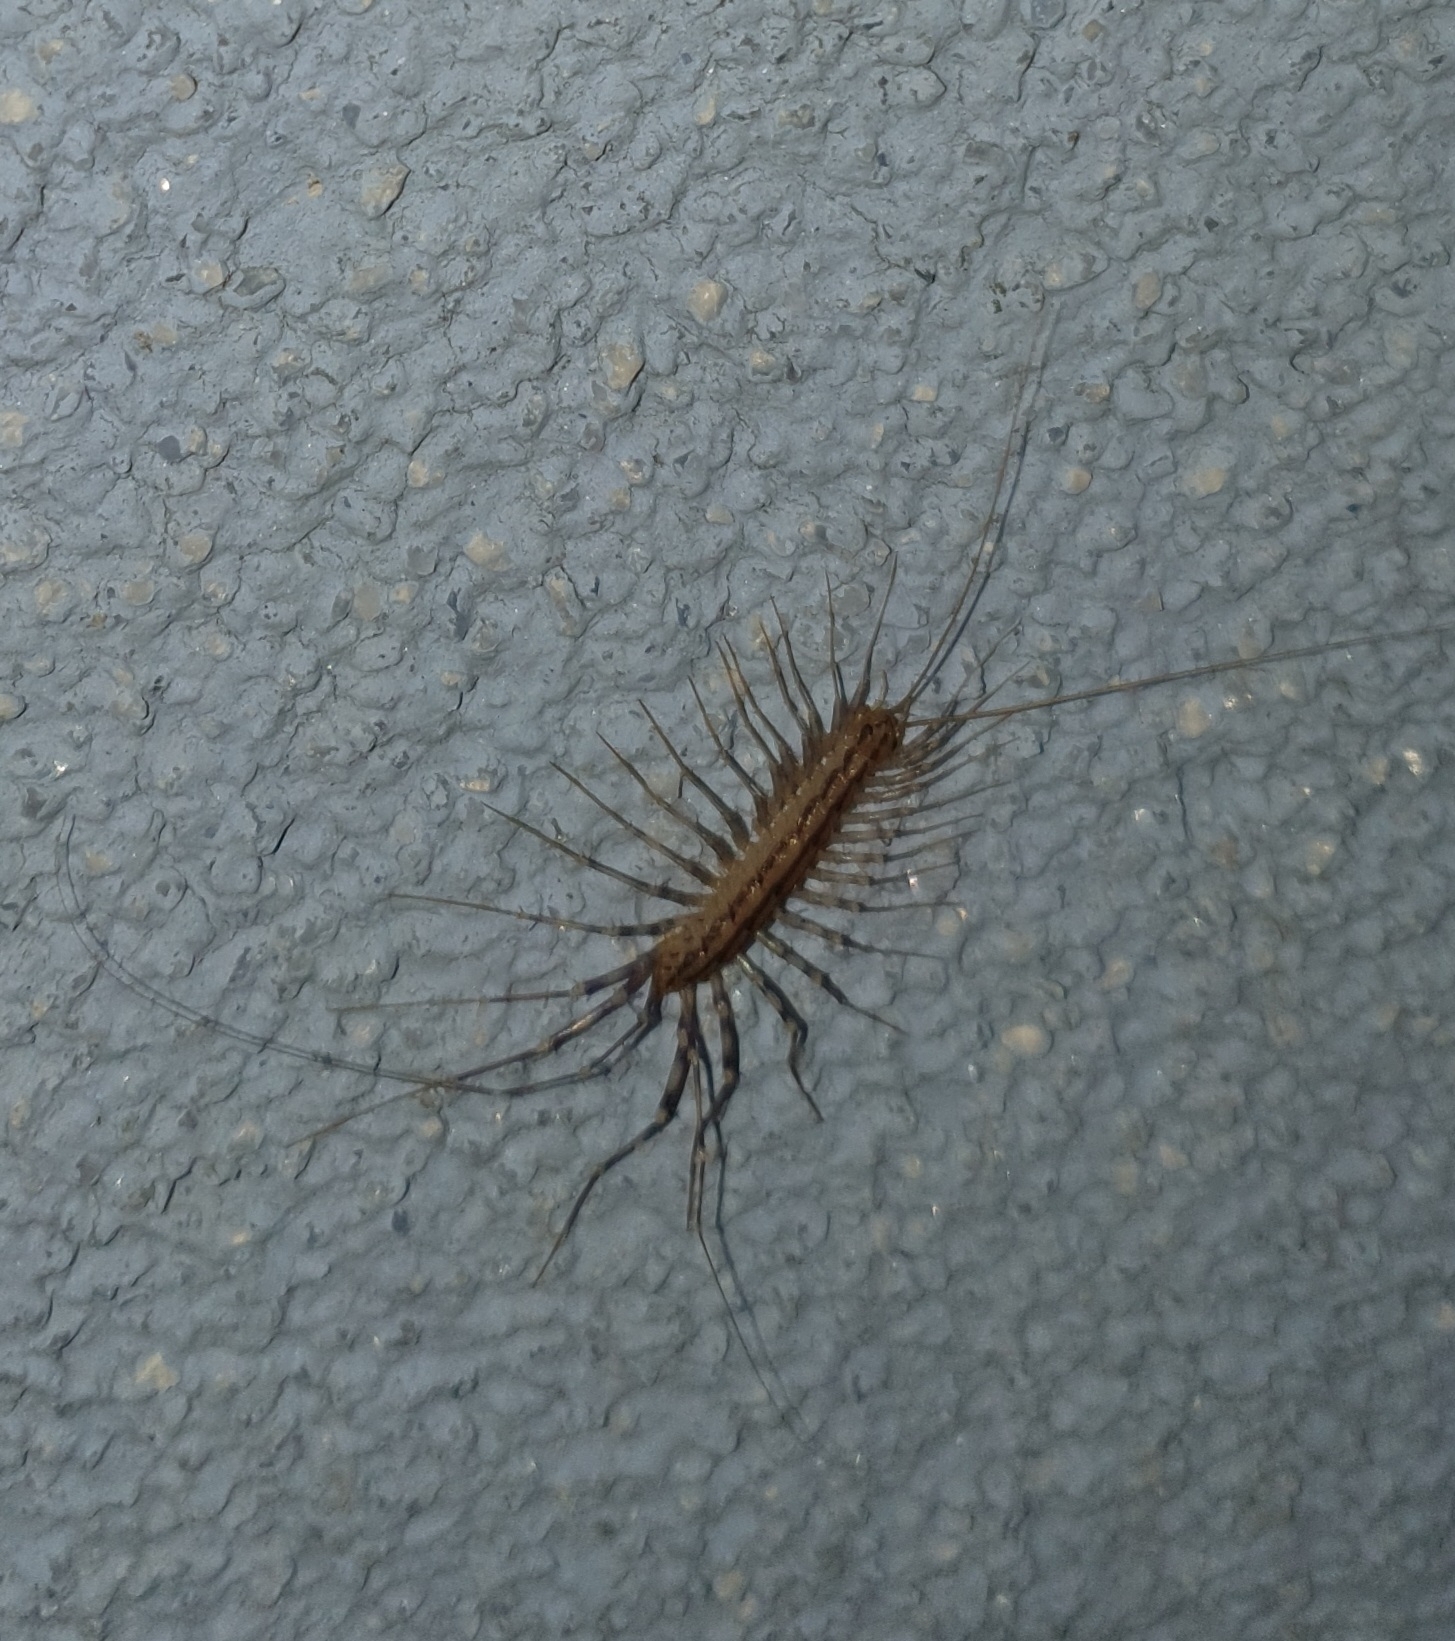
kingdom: Animalia
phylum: Arthropoda
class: Chilopoda
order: Scutigeromorpha
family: Scutigeridae
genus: Scutigera
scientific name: Scutigera coleoptrata
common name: House centipede
